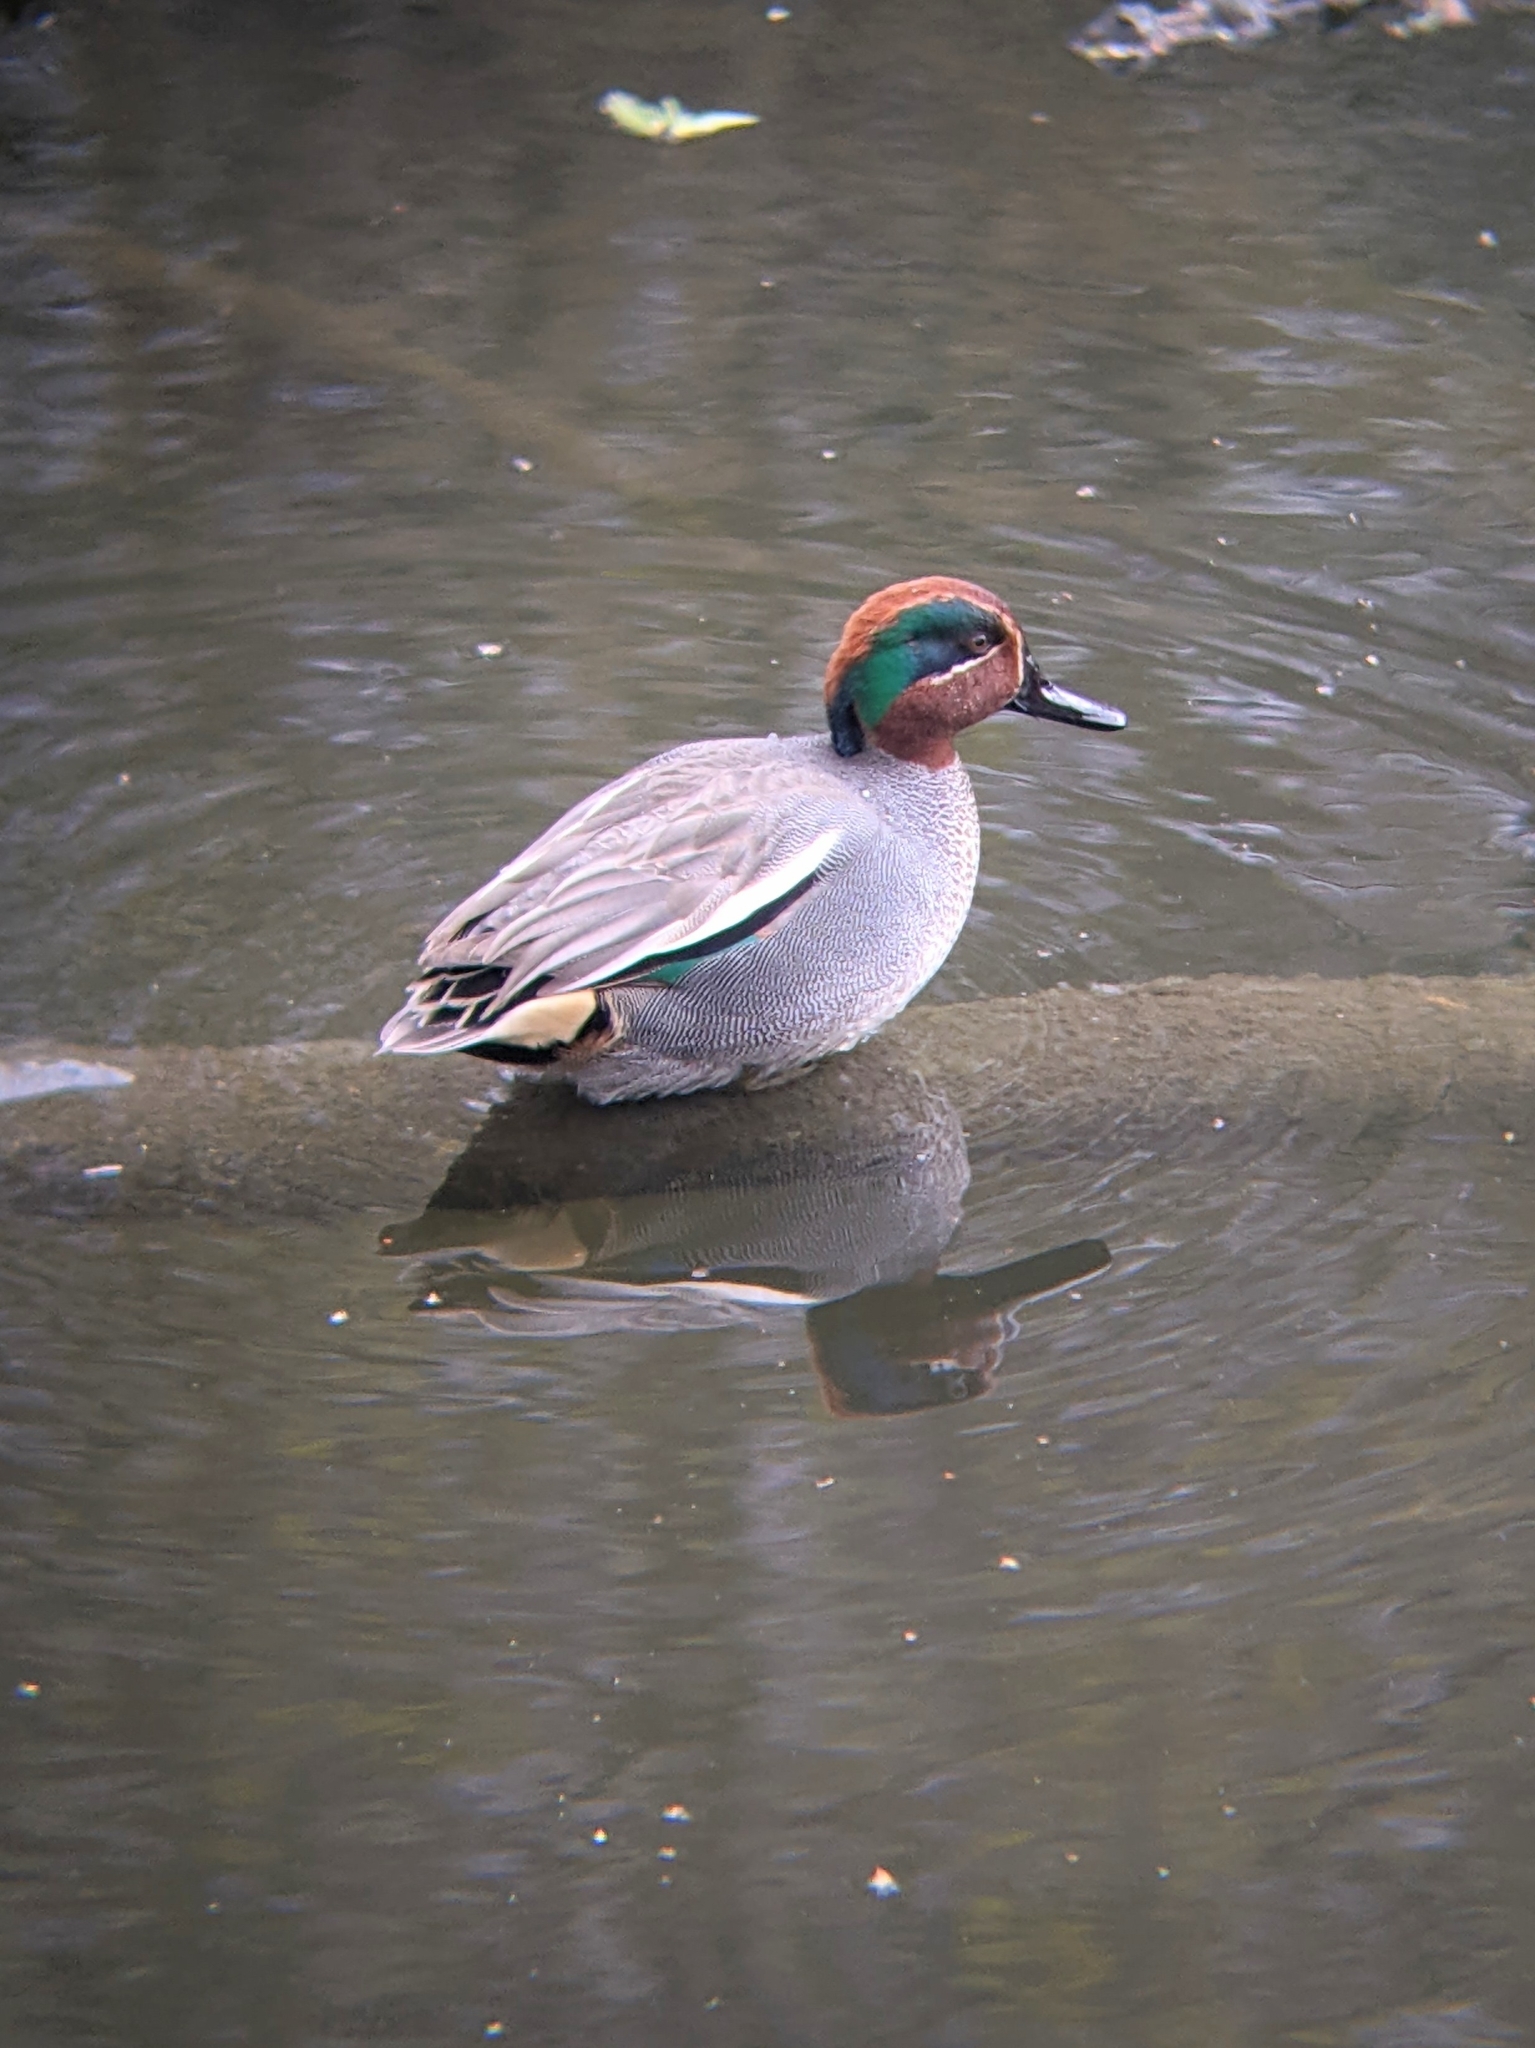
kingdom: Animalia
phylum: Chordata
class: Aves
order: Anseriformes
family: Anatidae
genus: Anas
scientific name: Anas crecca
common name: Eurasian teal
